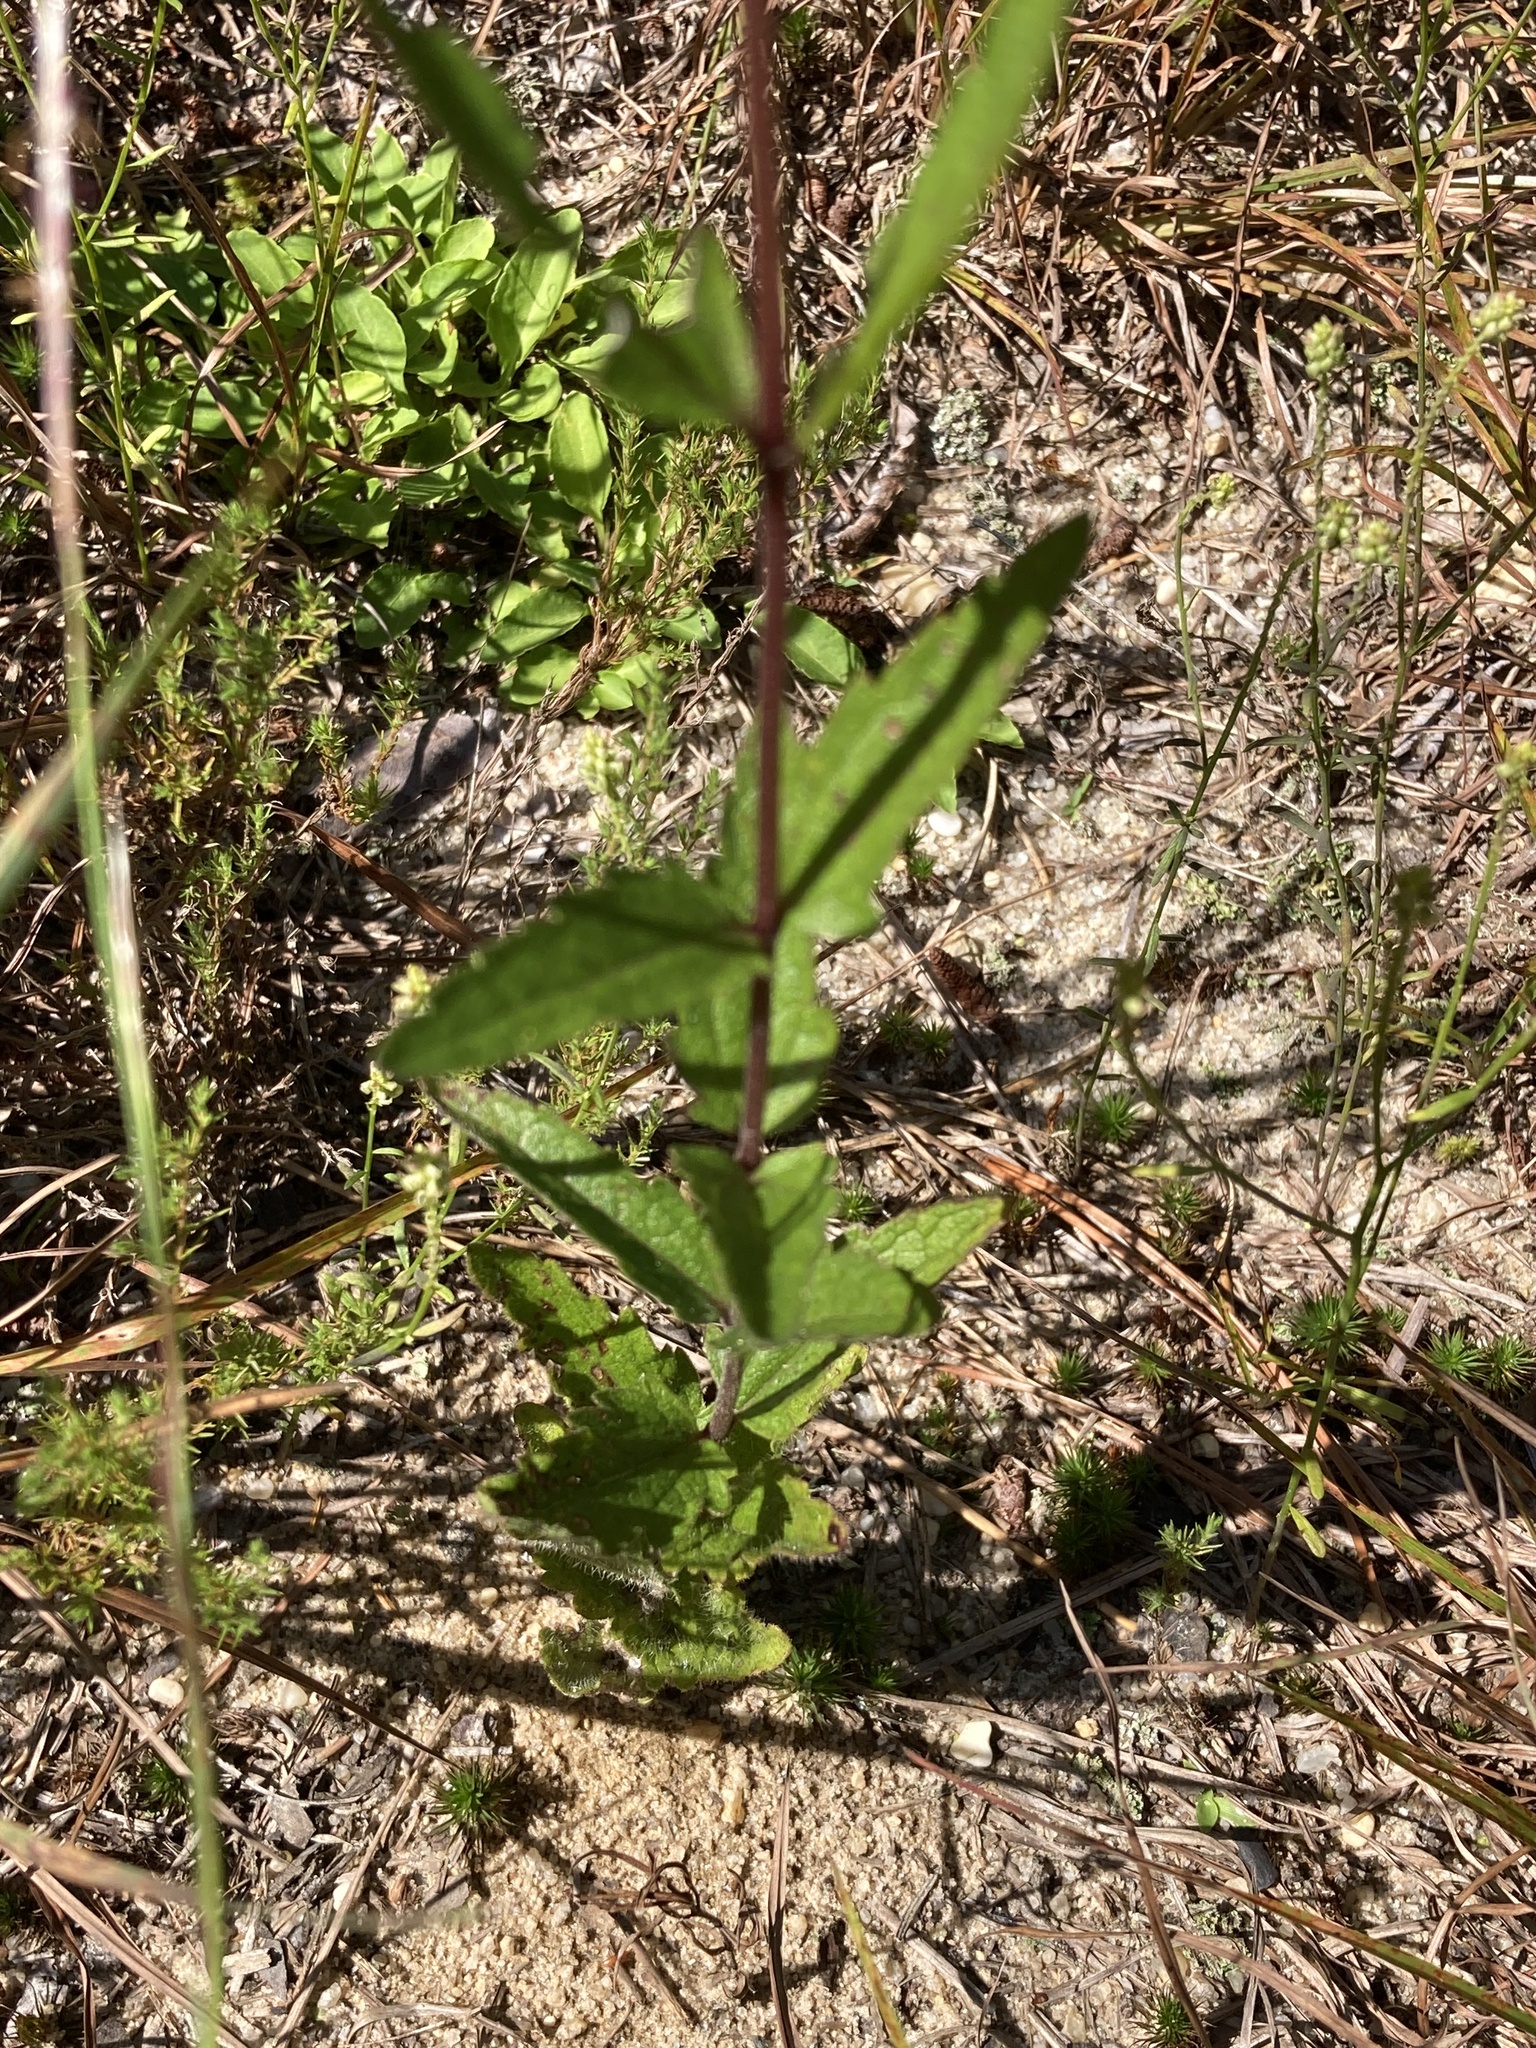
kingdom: Plantae
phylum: Tracheophyta
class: Magnoliopsida
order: Asterales
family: Asteraceae
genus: Eupatorium
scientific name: Eupatorium pilosum
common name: Rough boneset
